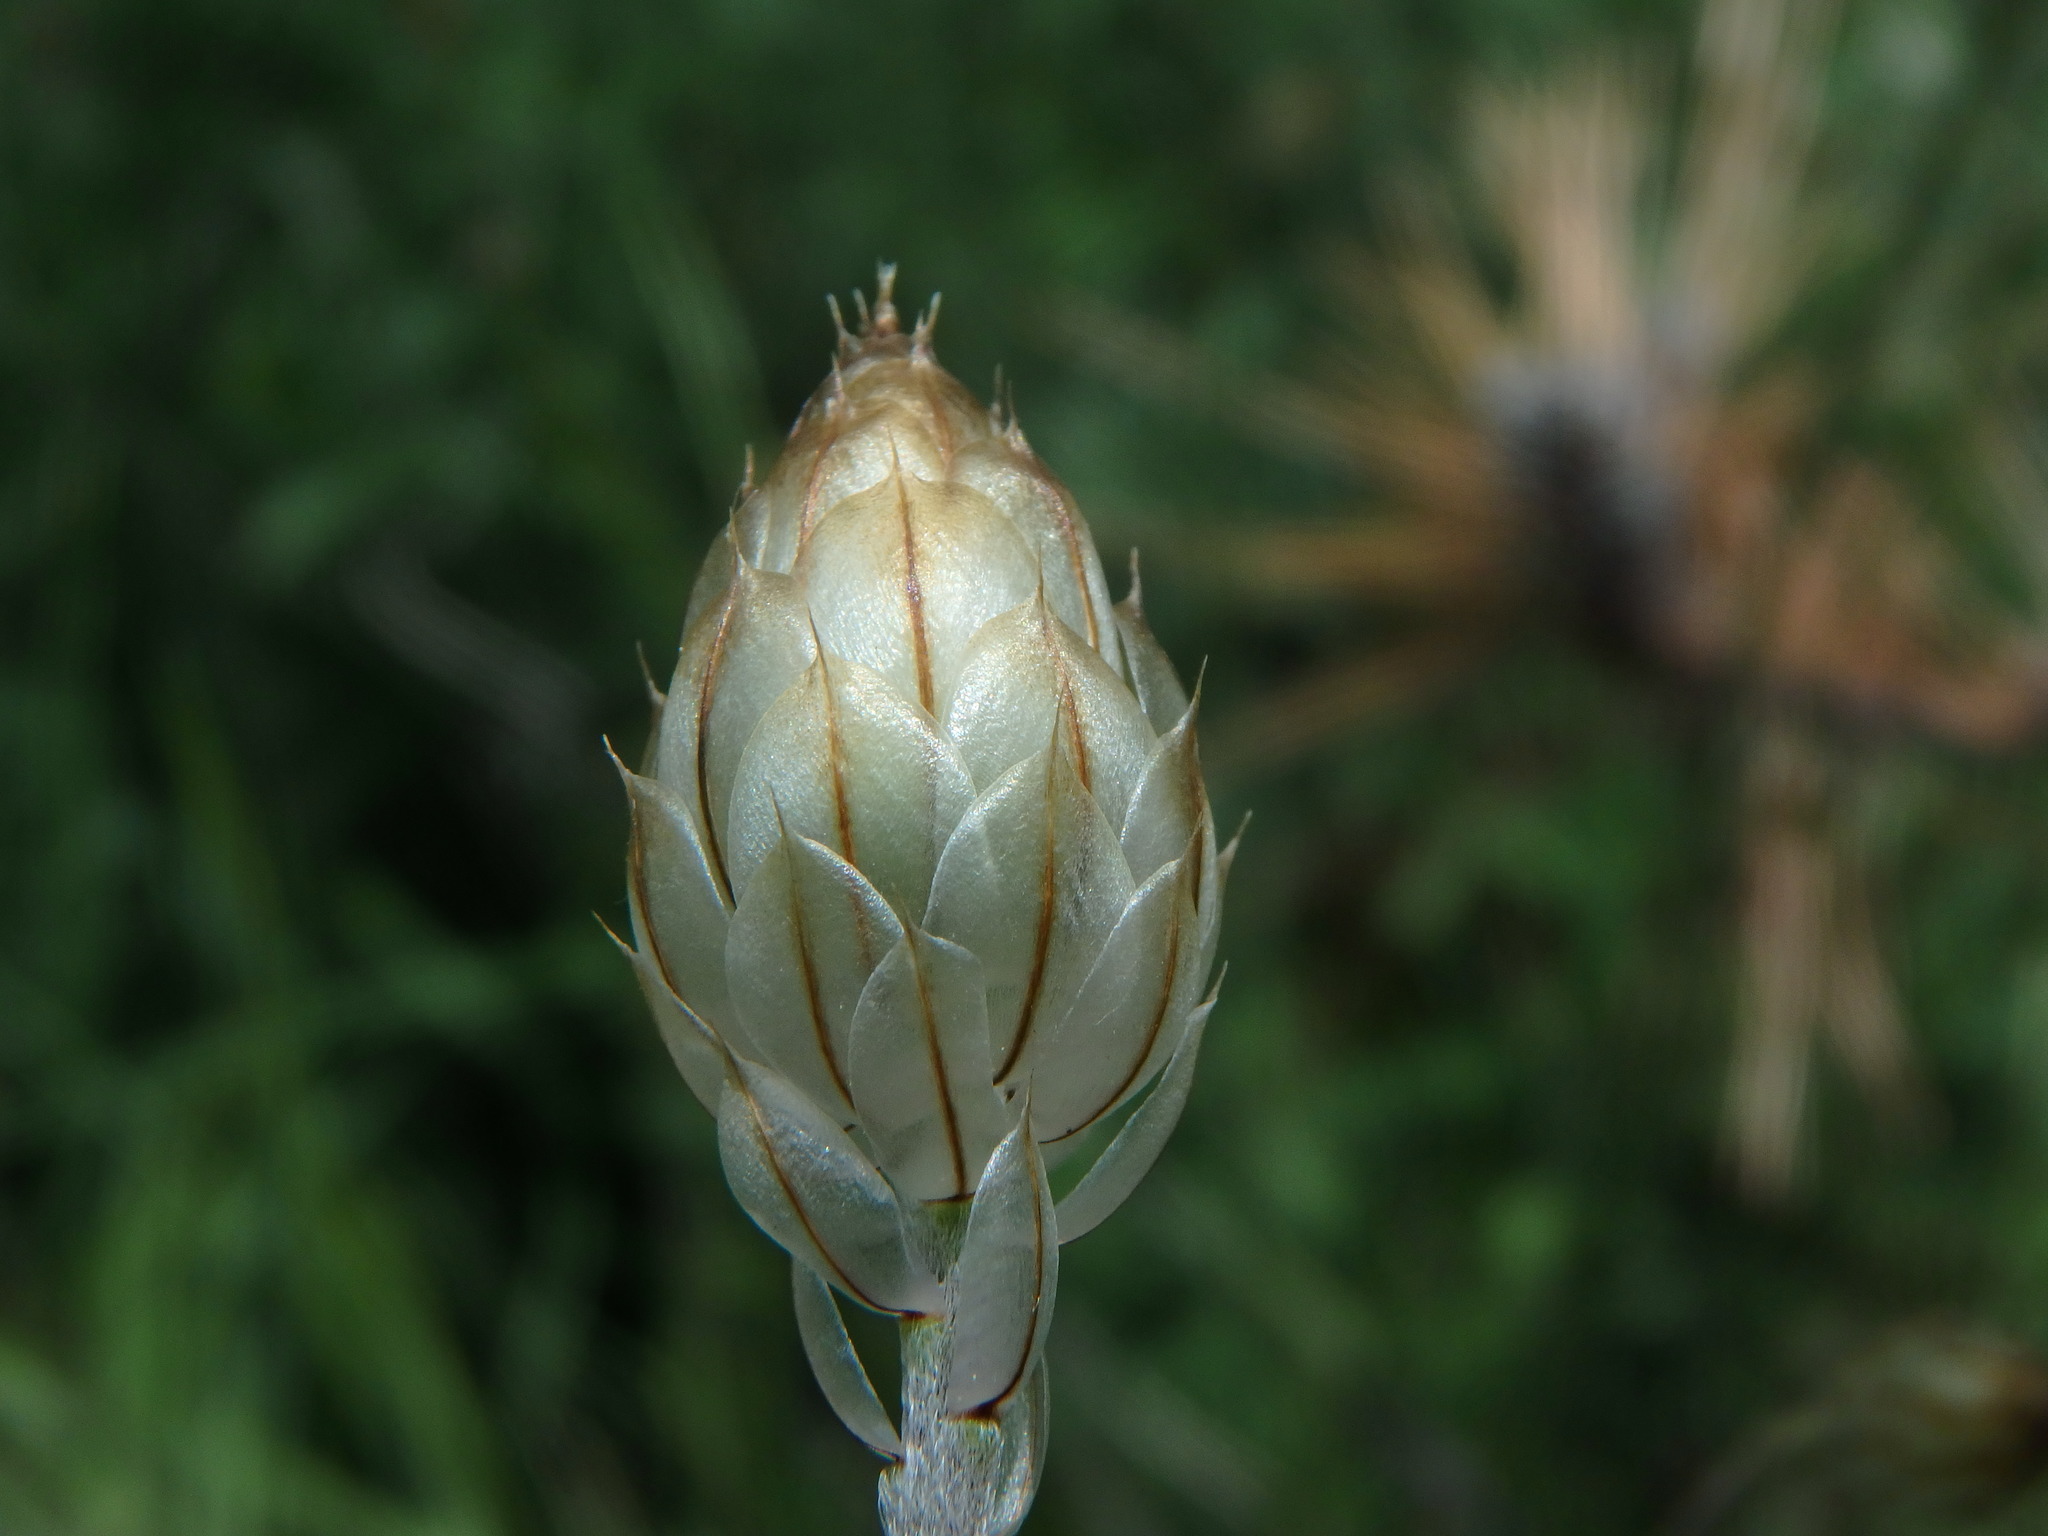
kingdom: Plantae
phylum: Tracheophyta
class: Magnoliopsida
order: Asterales
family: Asteraceae
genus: Catananche
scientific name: Catananche caerulea
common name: Blue cupidone
